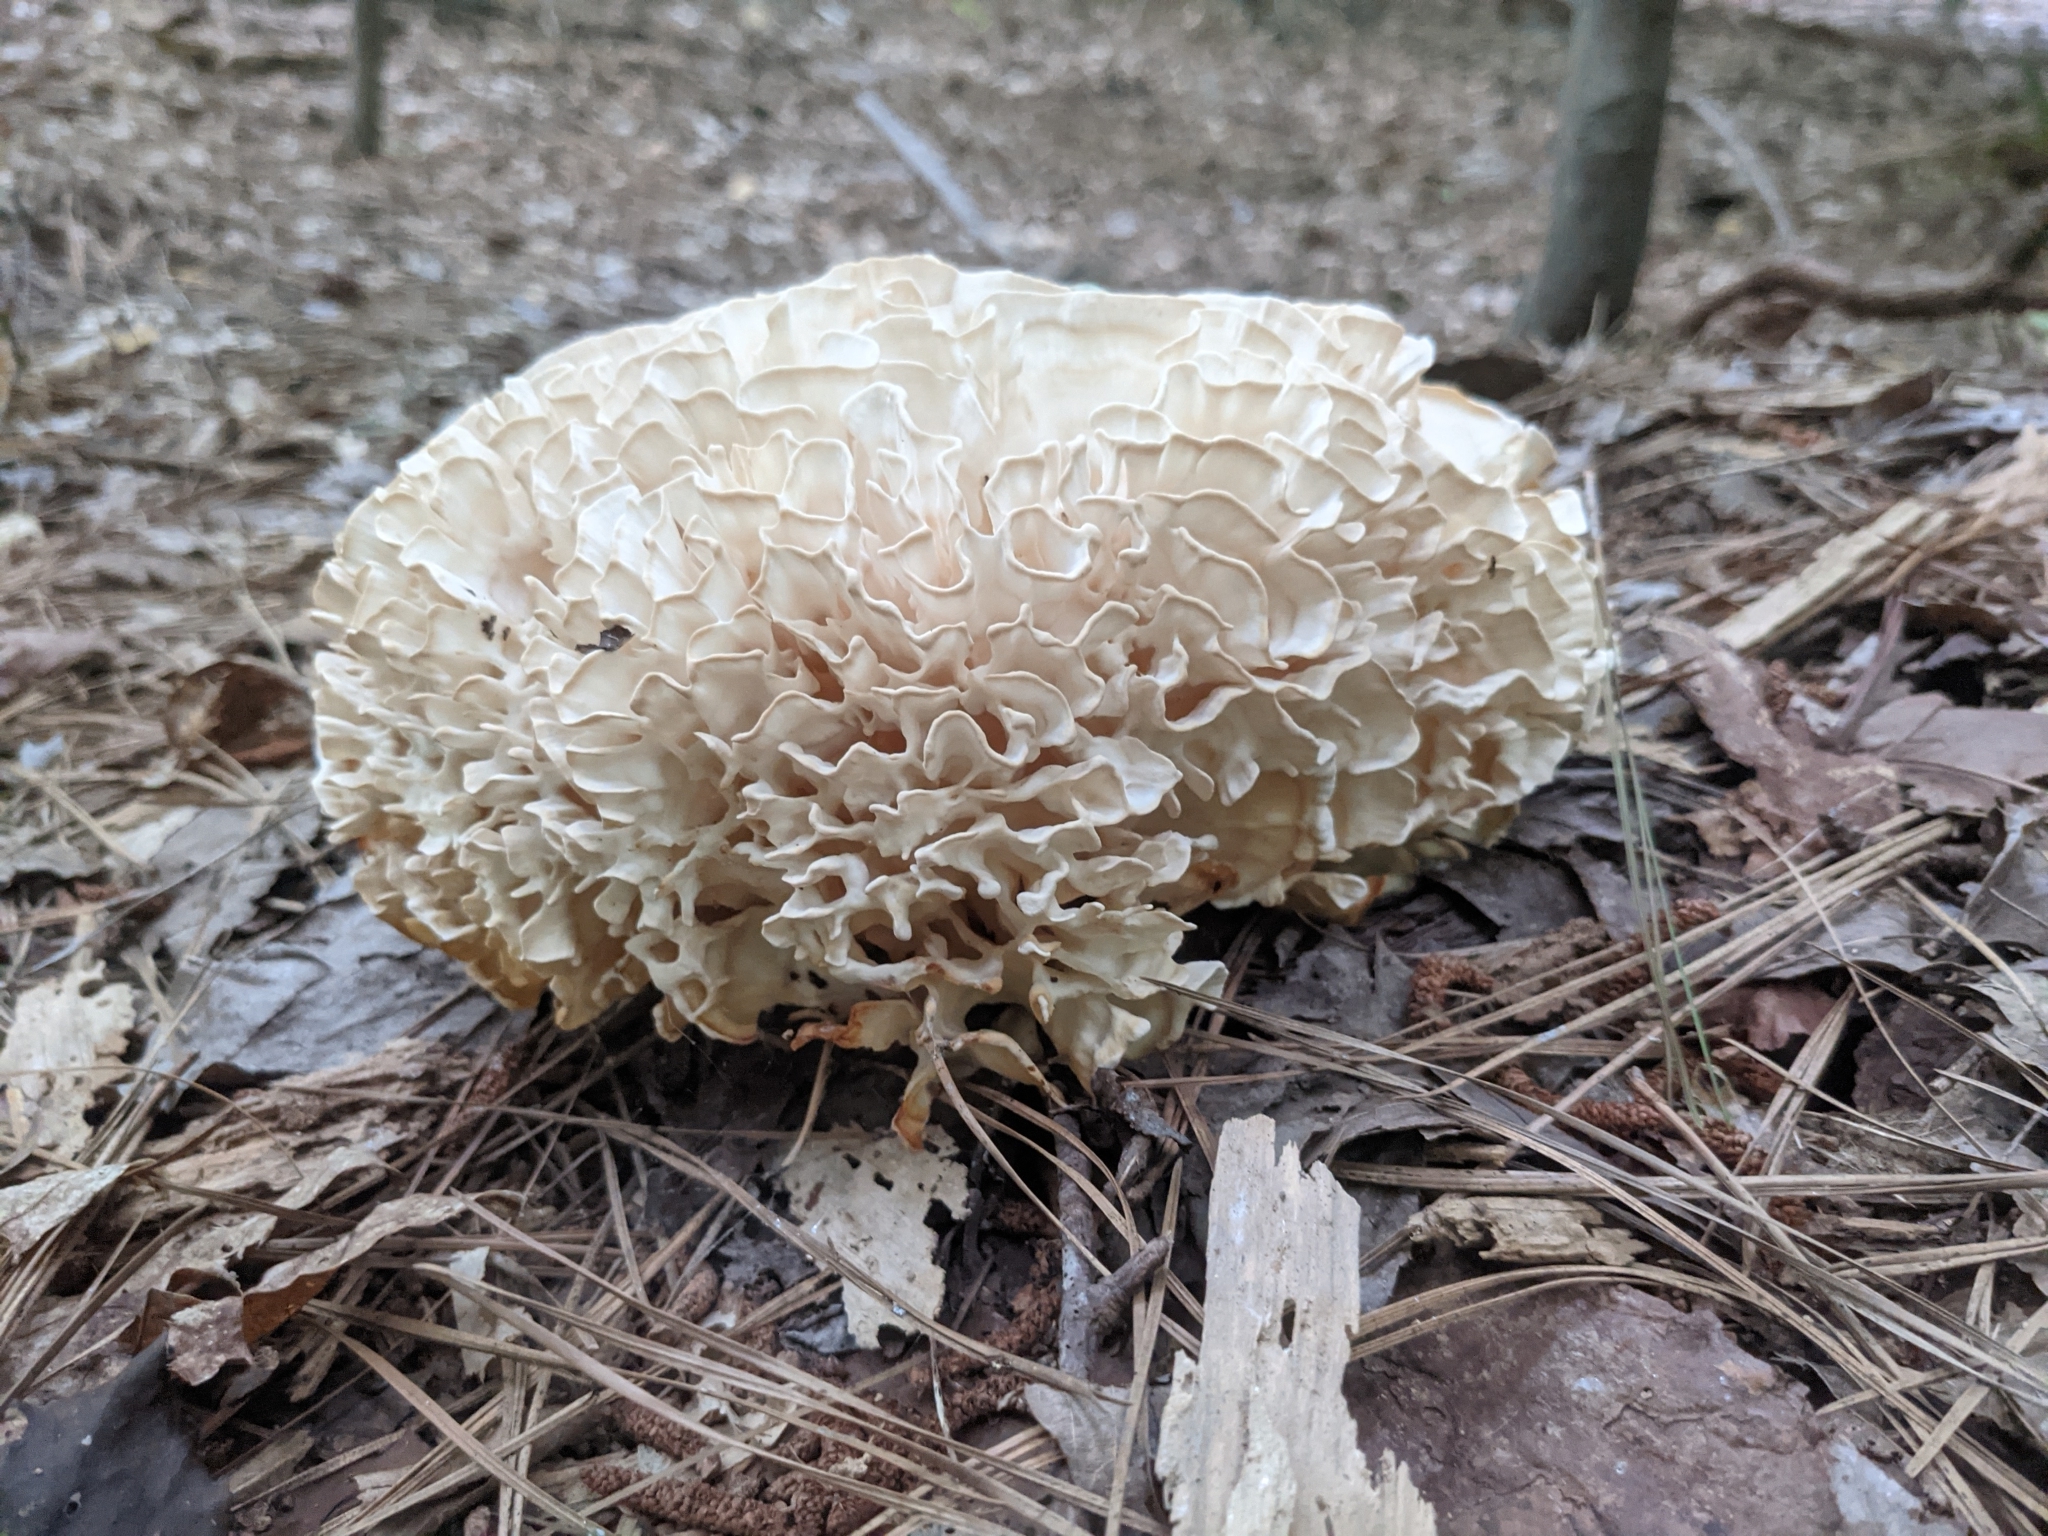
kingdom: Fungi
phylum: Basidiomycota
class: Agaricomycetes
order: Polyporales
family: Sparassidaceae
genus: Sparassis
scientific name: Sparassis spathulata
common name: Eastern cauliflower mushroom
